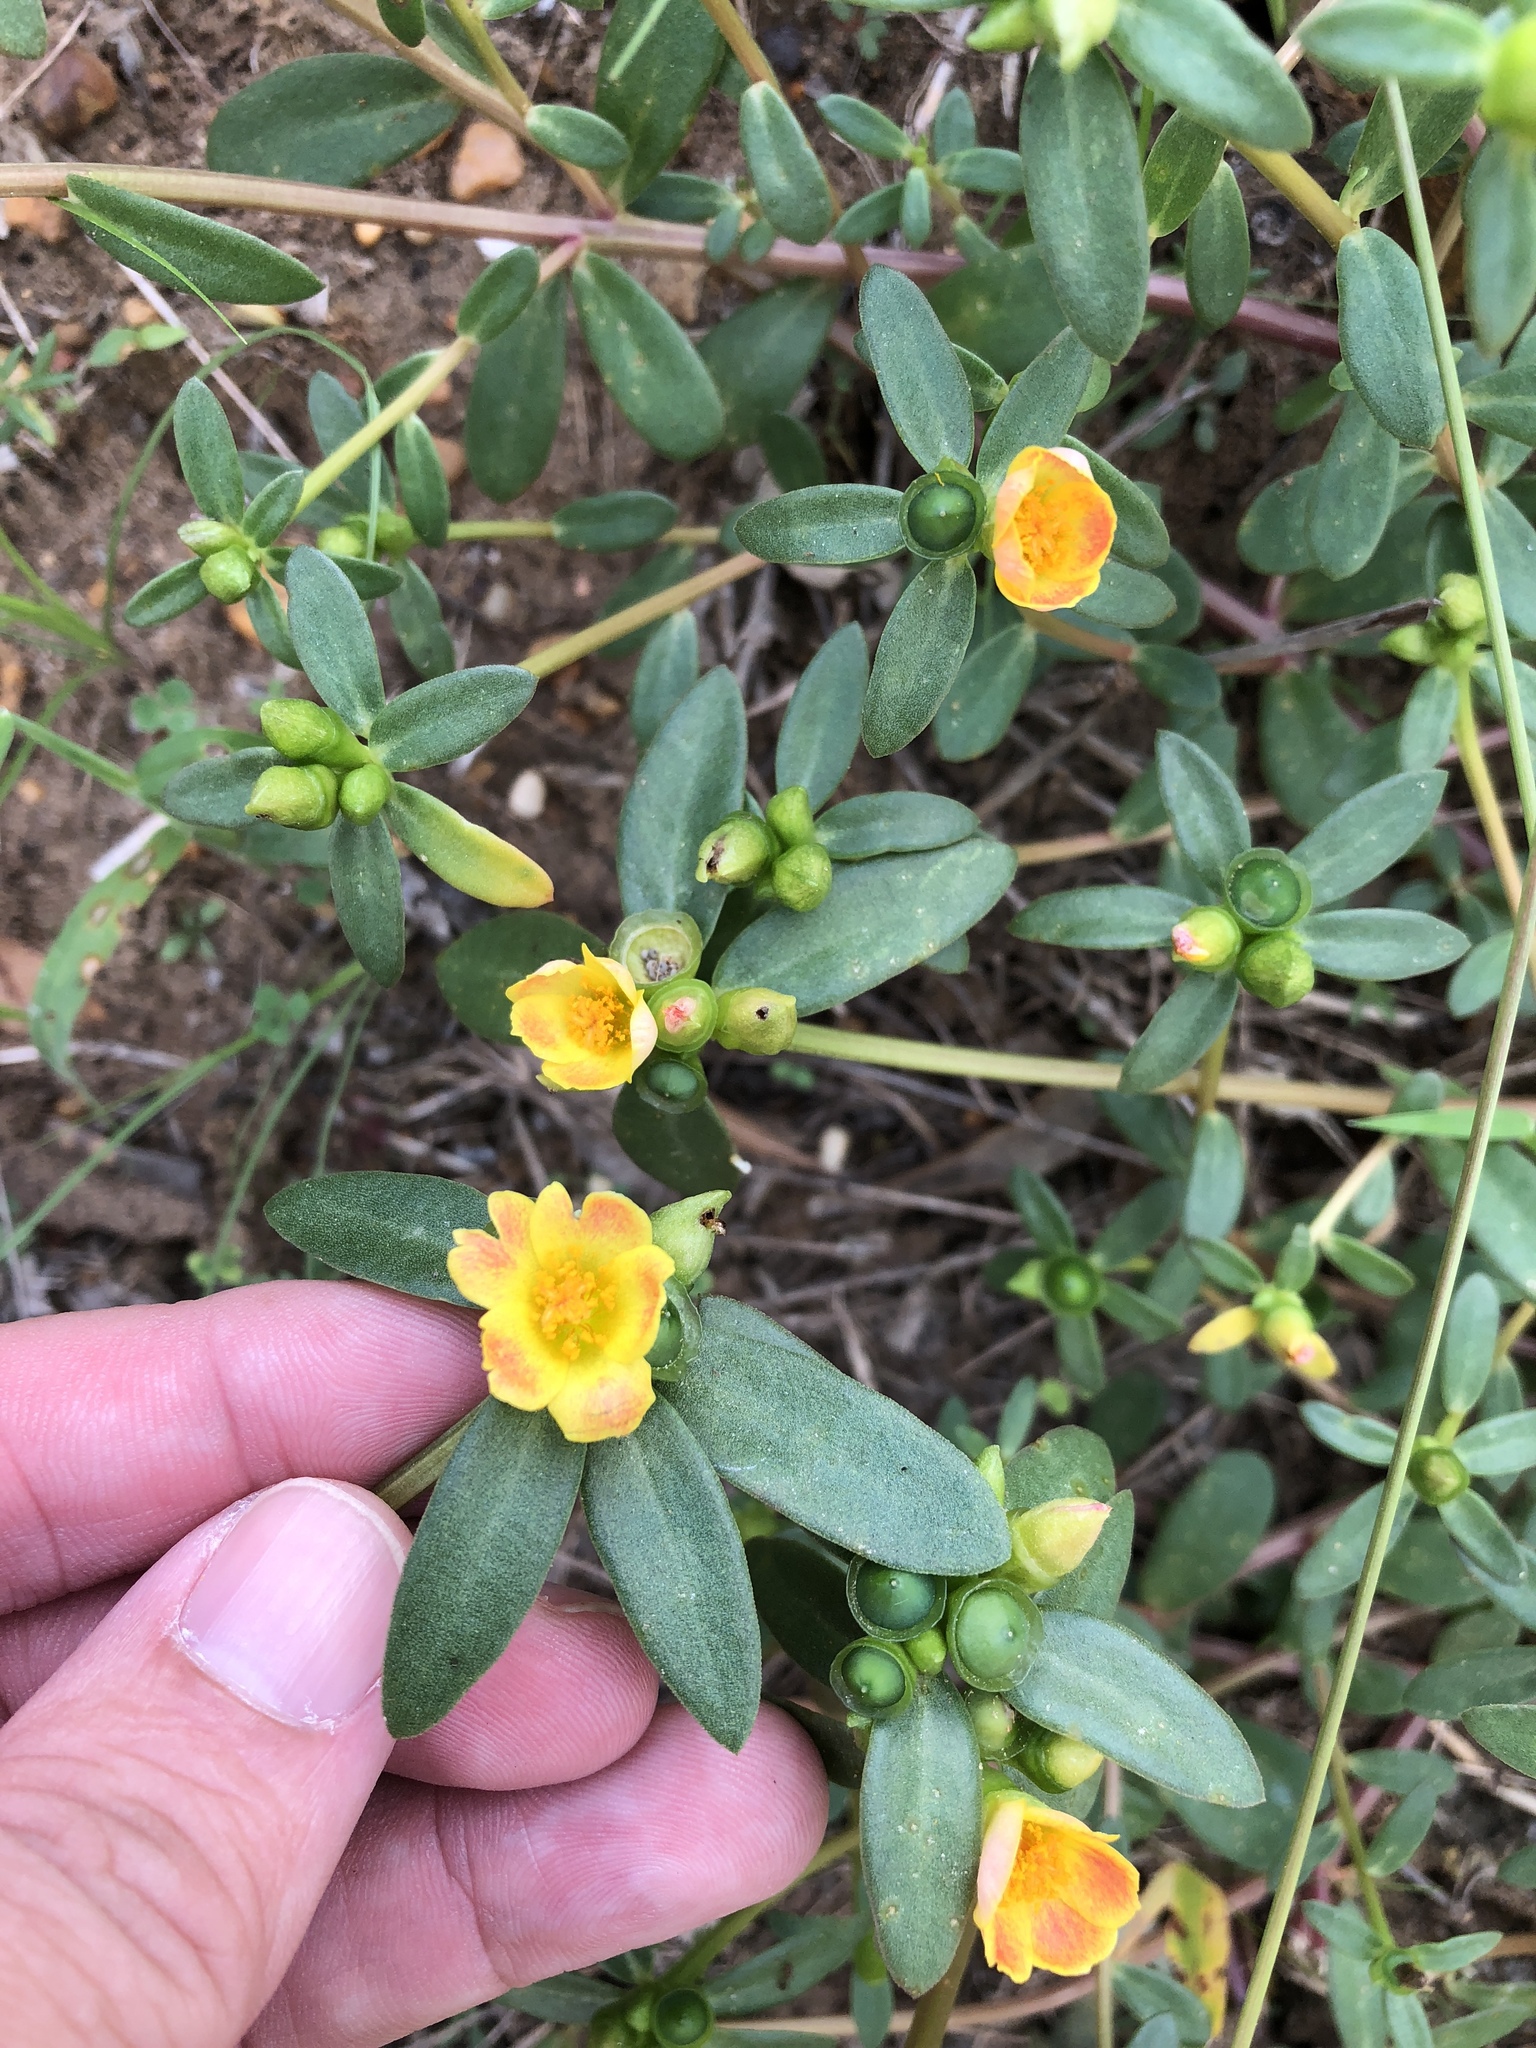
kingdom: Plantae
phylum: Tracheophyta
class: Magnoliopsida
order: Caryophyllales
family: Portulacaceae
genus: Portulaca
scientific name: Portulaca umbraticola
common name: Wingpod purslane
